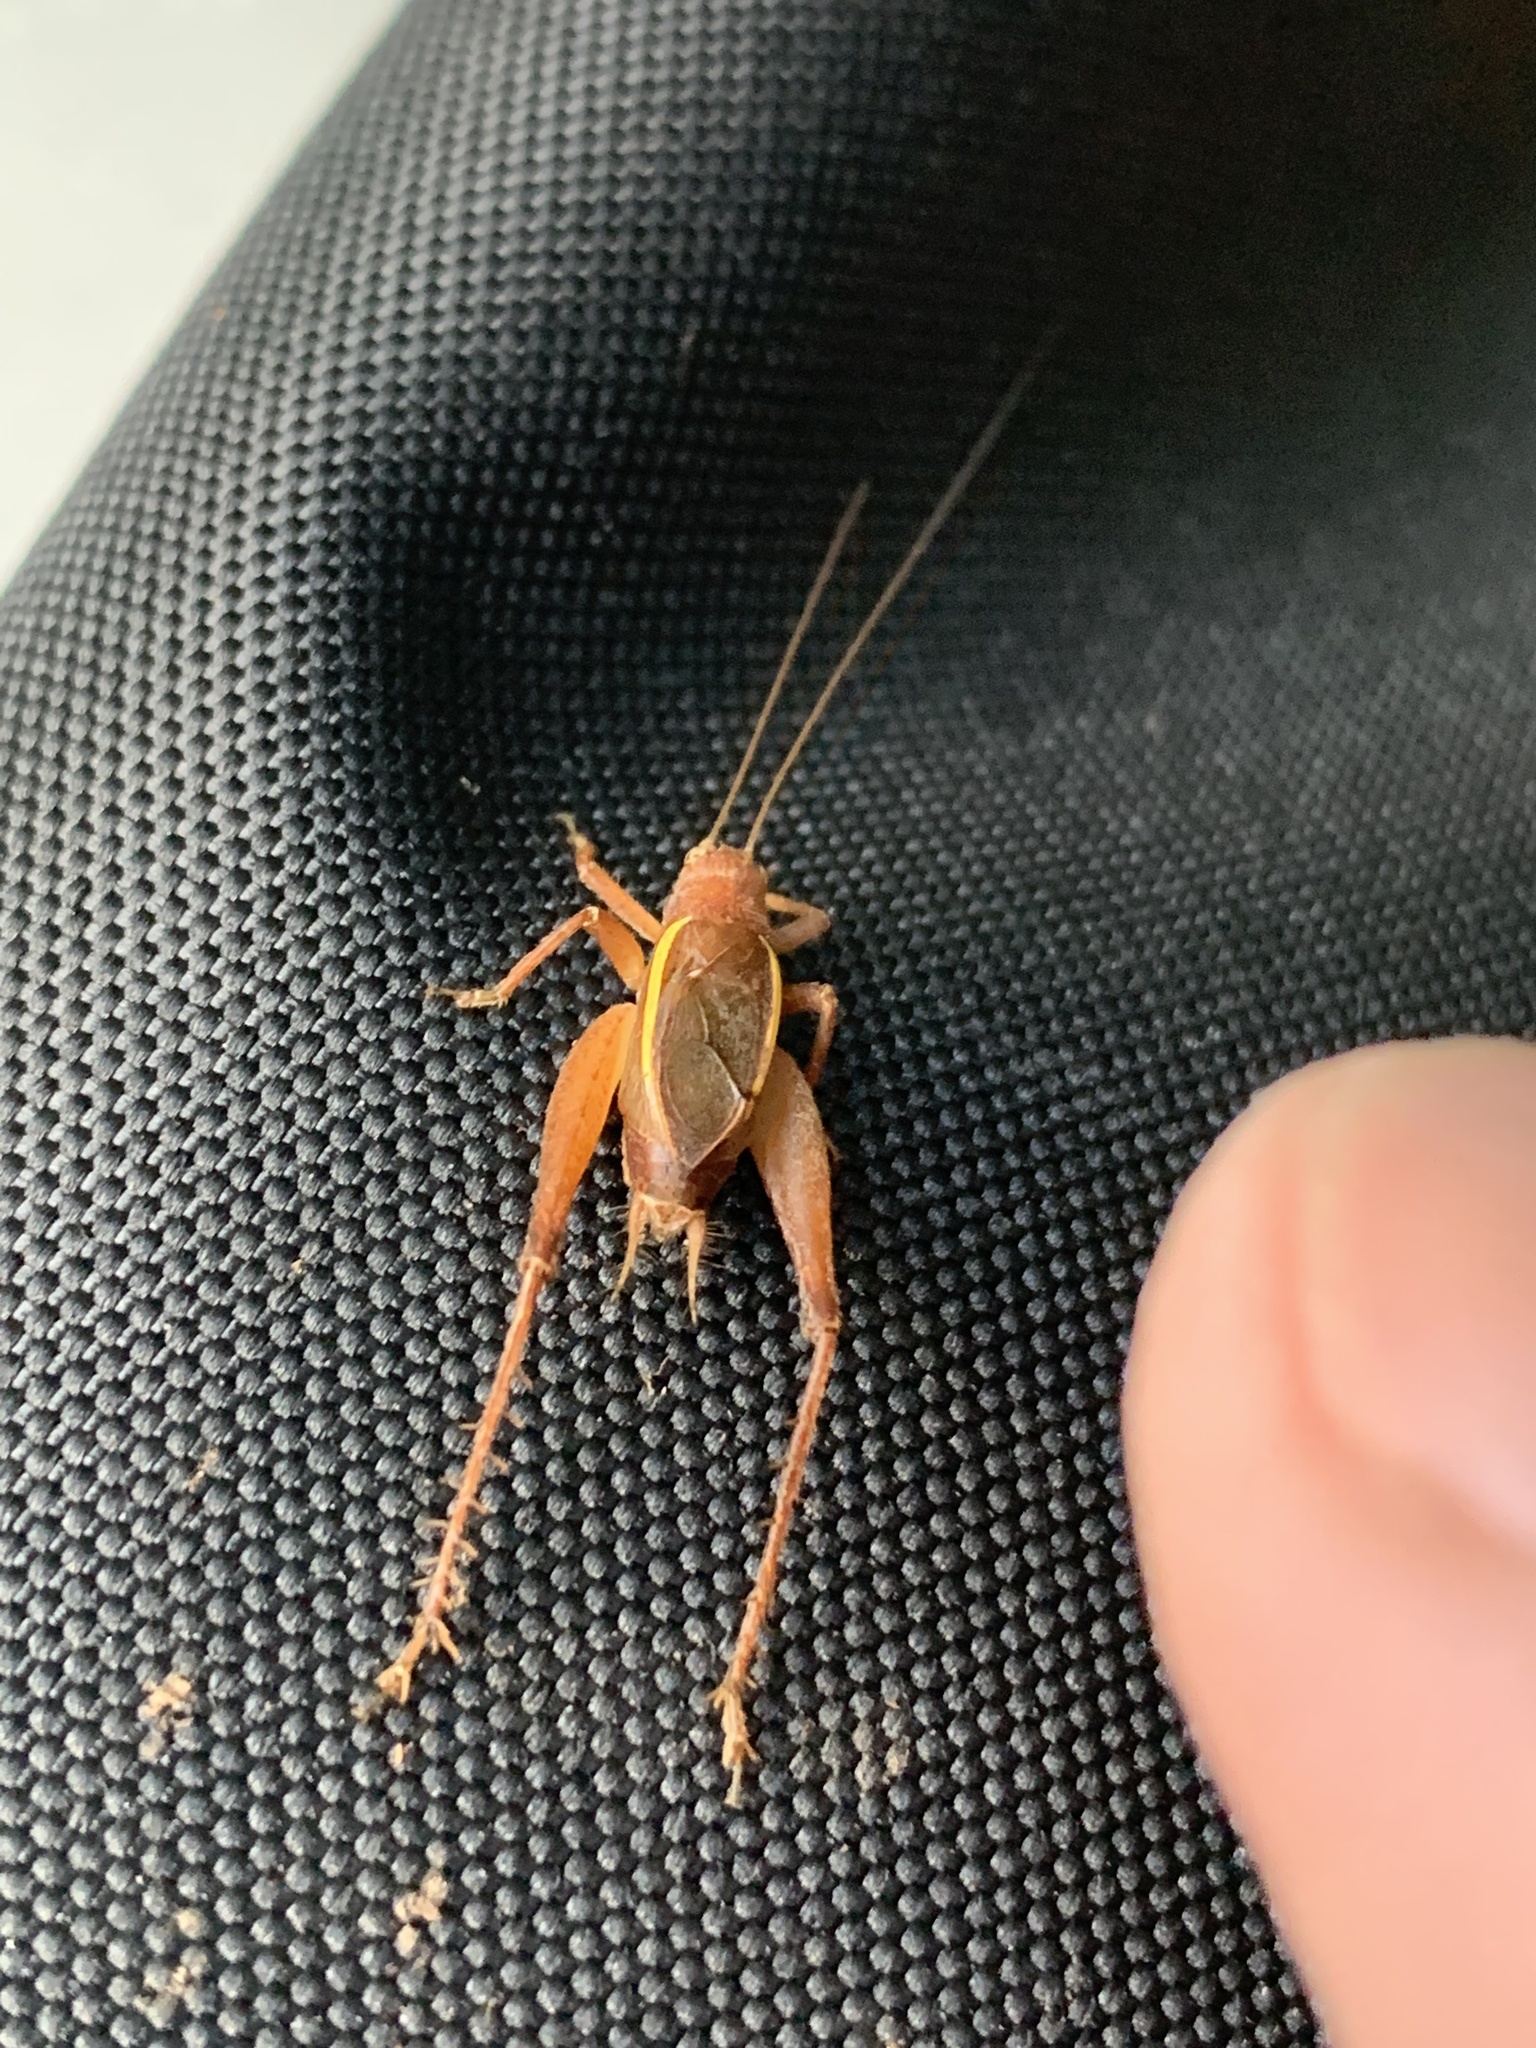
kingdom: Animalia
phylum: Arthropoda
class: Insecta
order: Orthoptera
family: Gryllidae
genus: Hapithus
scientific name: Hapithus agitator
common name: Restless bush cricket
